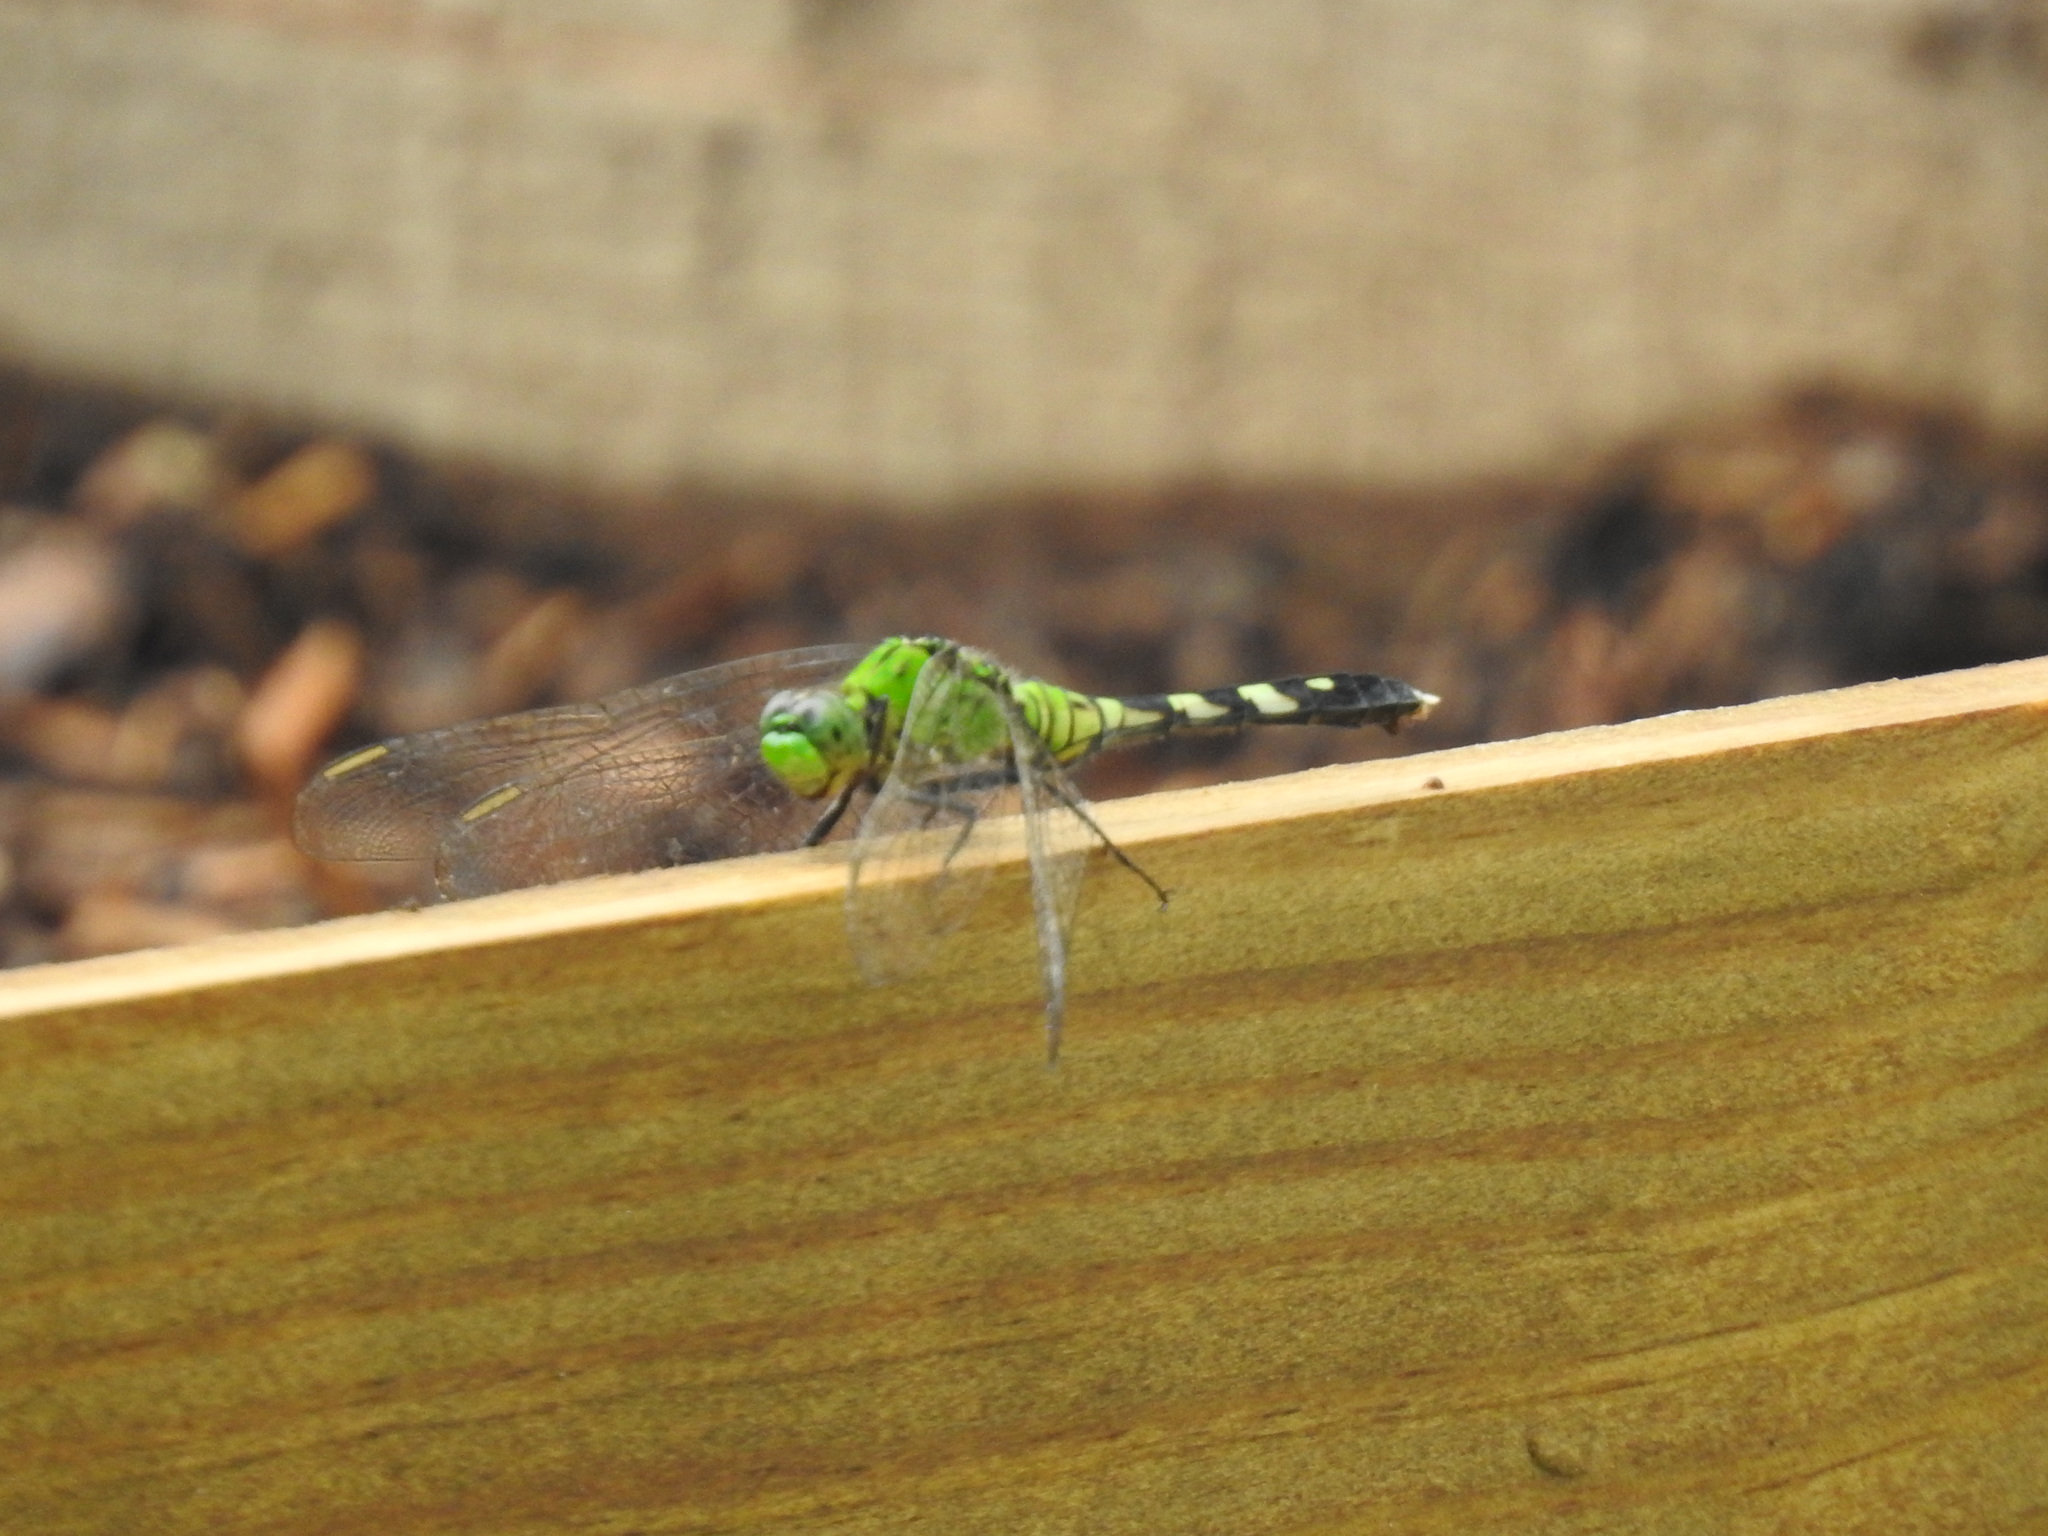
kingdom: Animalia
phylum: Arthropoda
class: Insecta
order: Odonata
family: Libellulidae
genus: Erythemis
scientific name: Erythemis simplicicollis
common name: Eastern pondhawk
